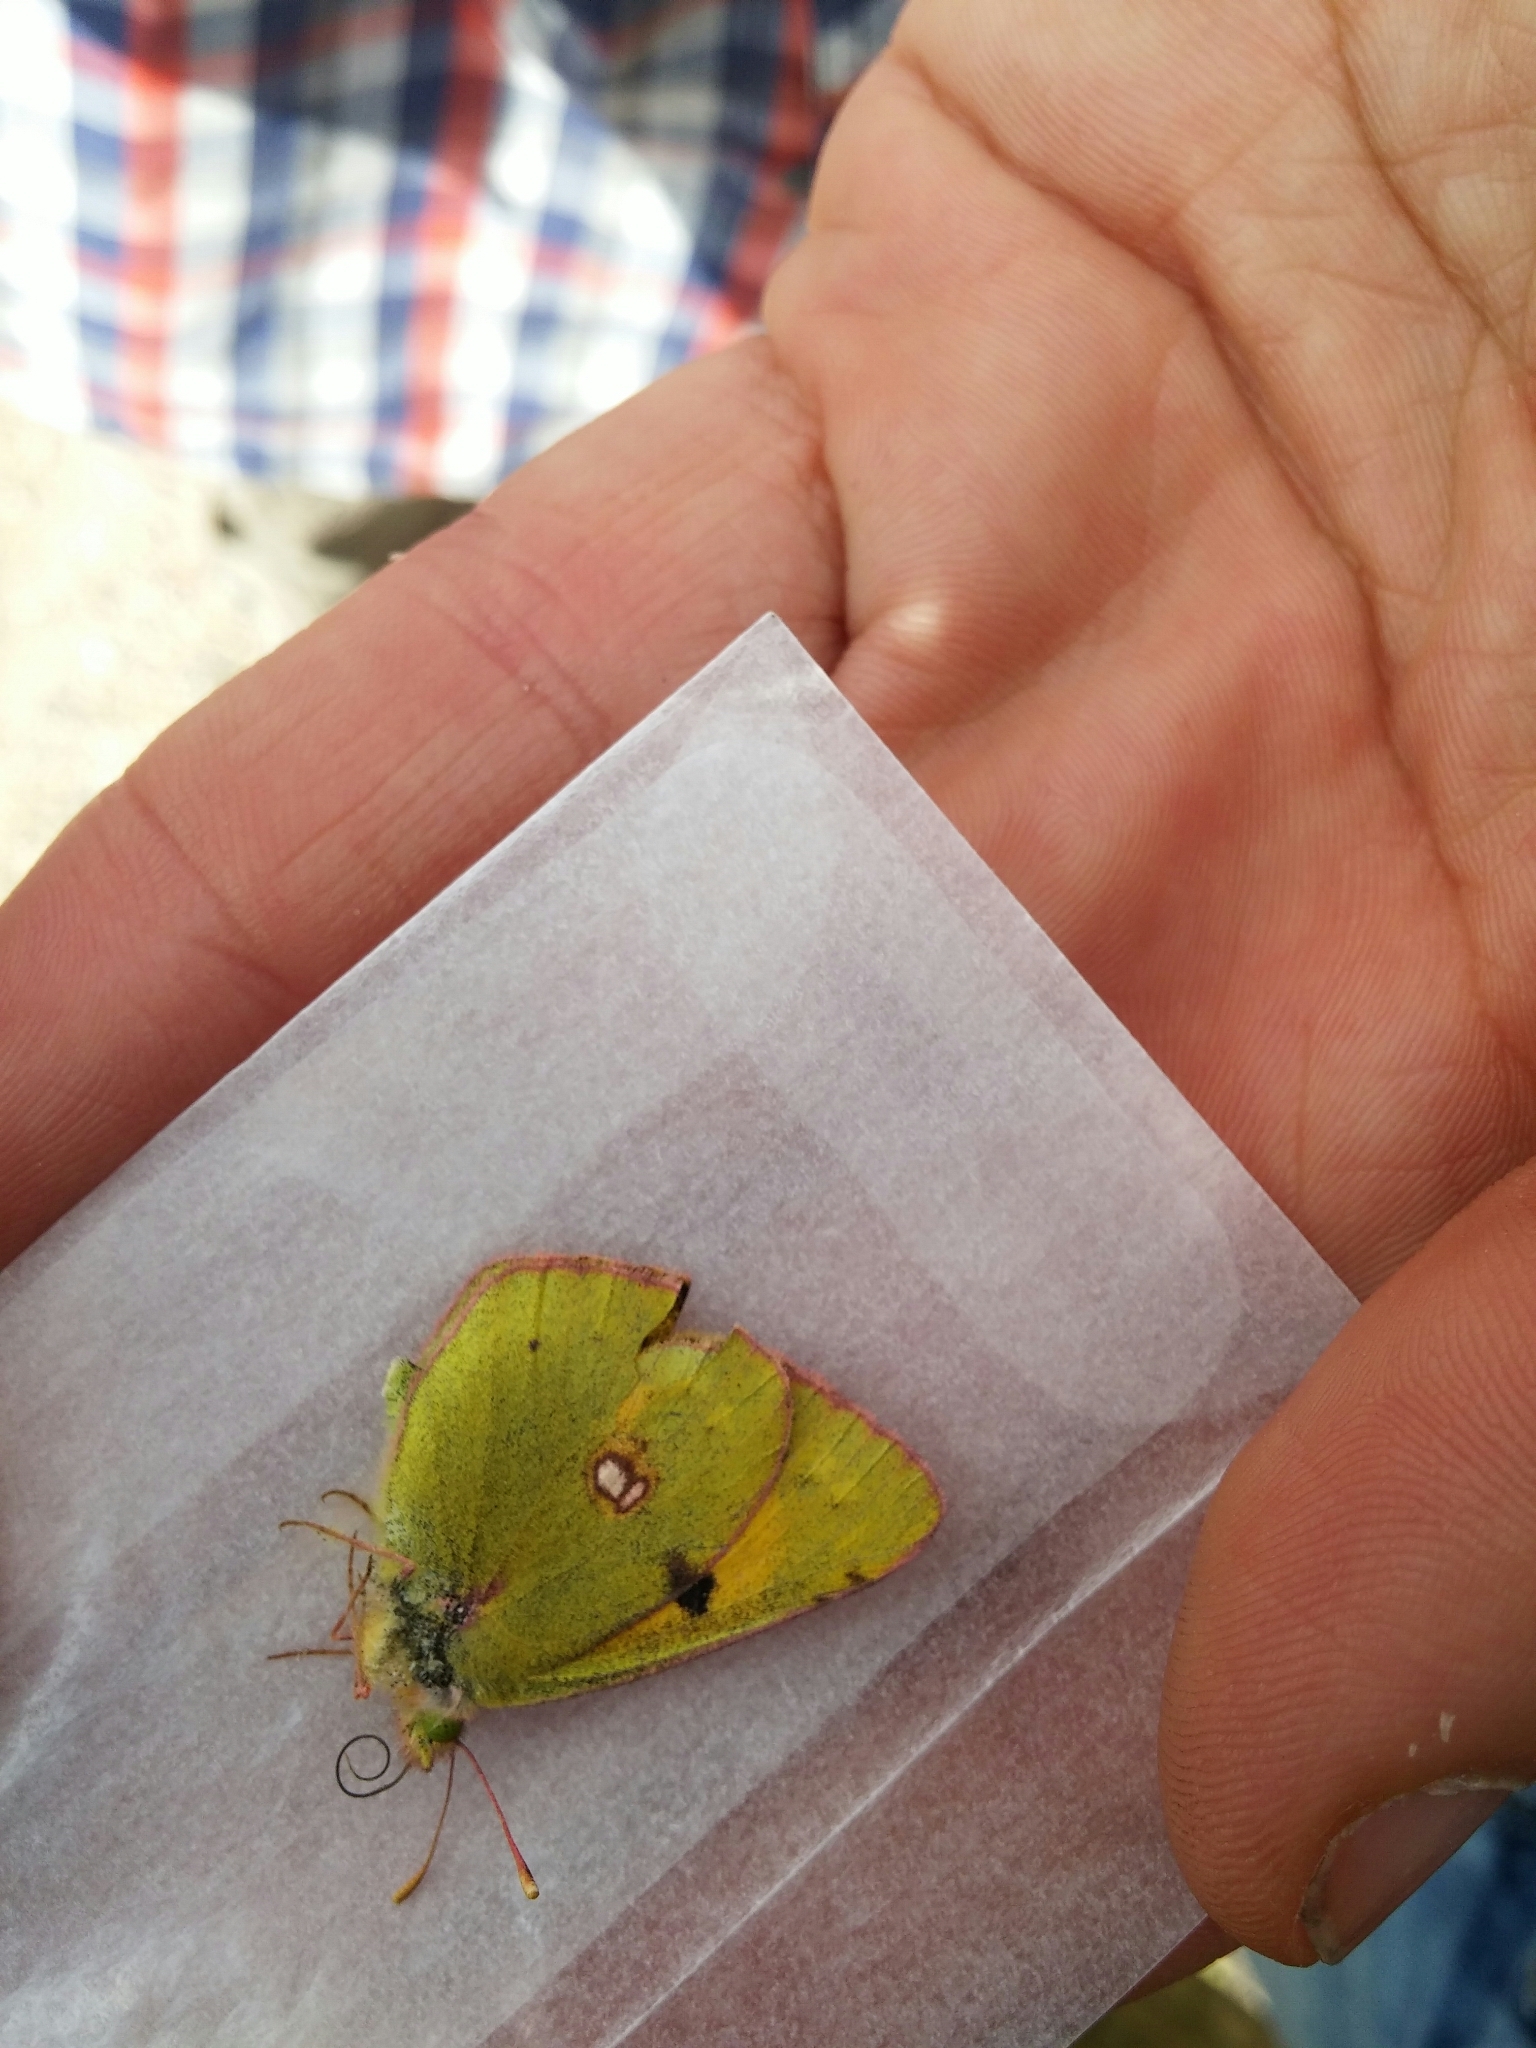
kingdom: Animalia
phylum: Arthropoda
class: Insecta
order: Lepidoptera
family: Pieridae
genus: Colias
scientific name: Colias croceus
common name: Clouded yellow
